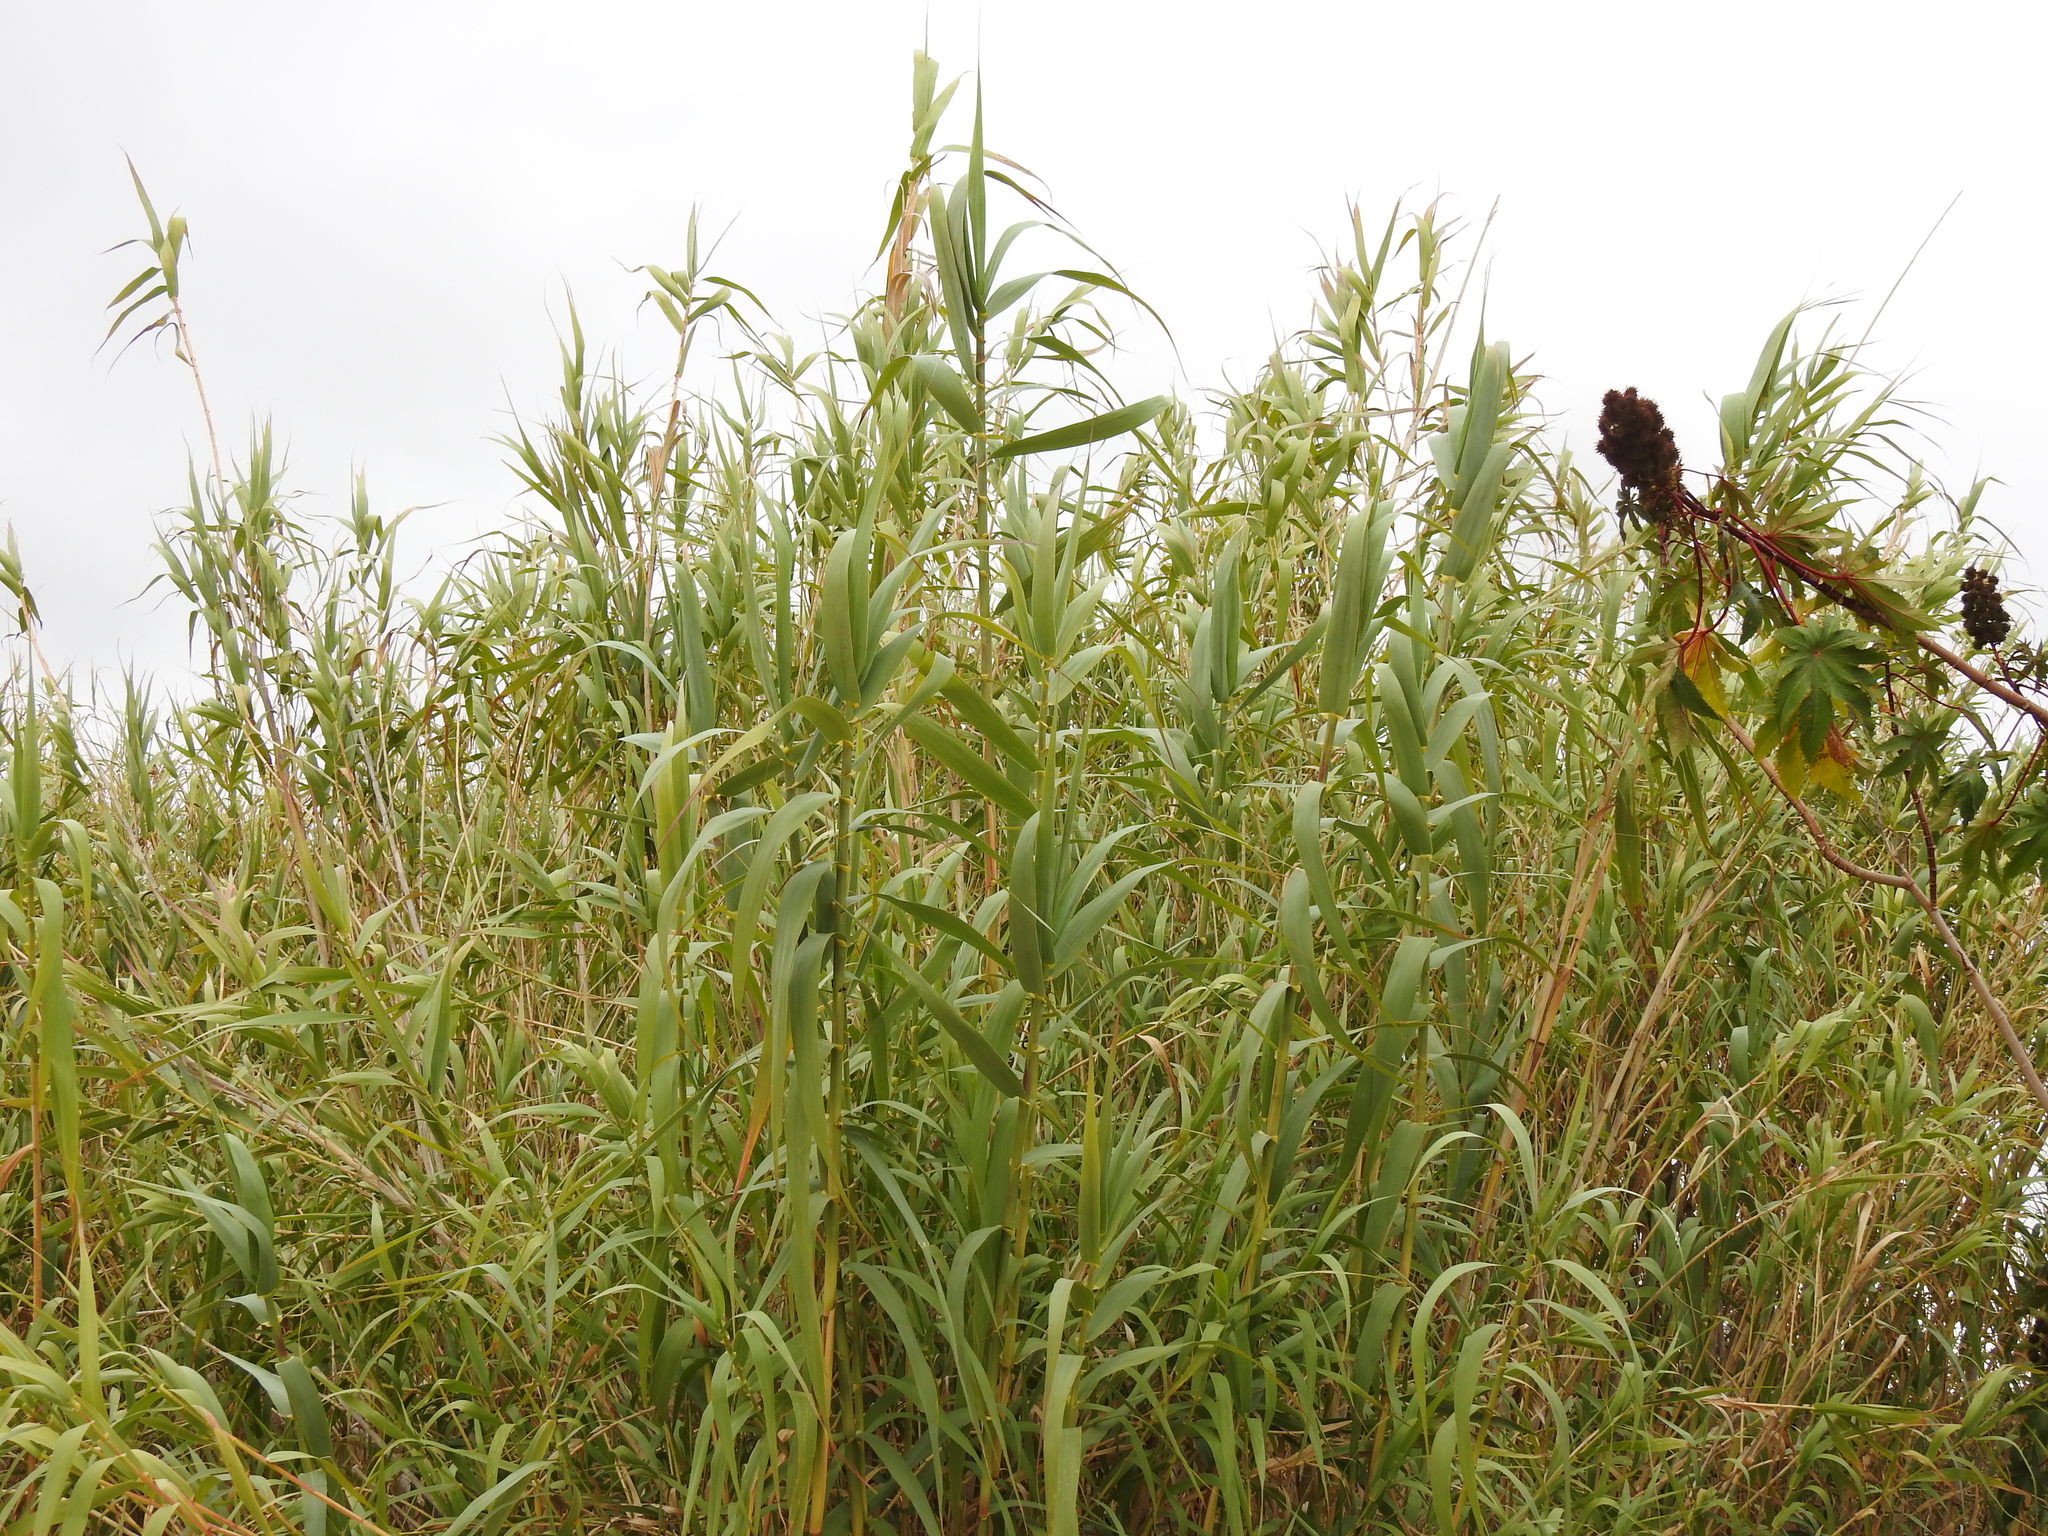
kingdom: Plantae
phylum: Tracheophyta
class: Liliopsida
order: Poales
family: Poaceae
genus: Arundo
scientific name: Arundo donax
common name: Giant reed
